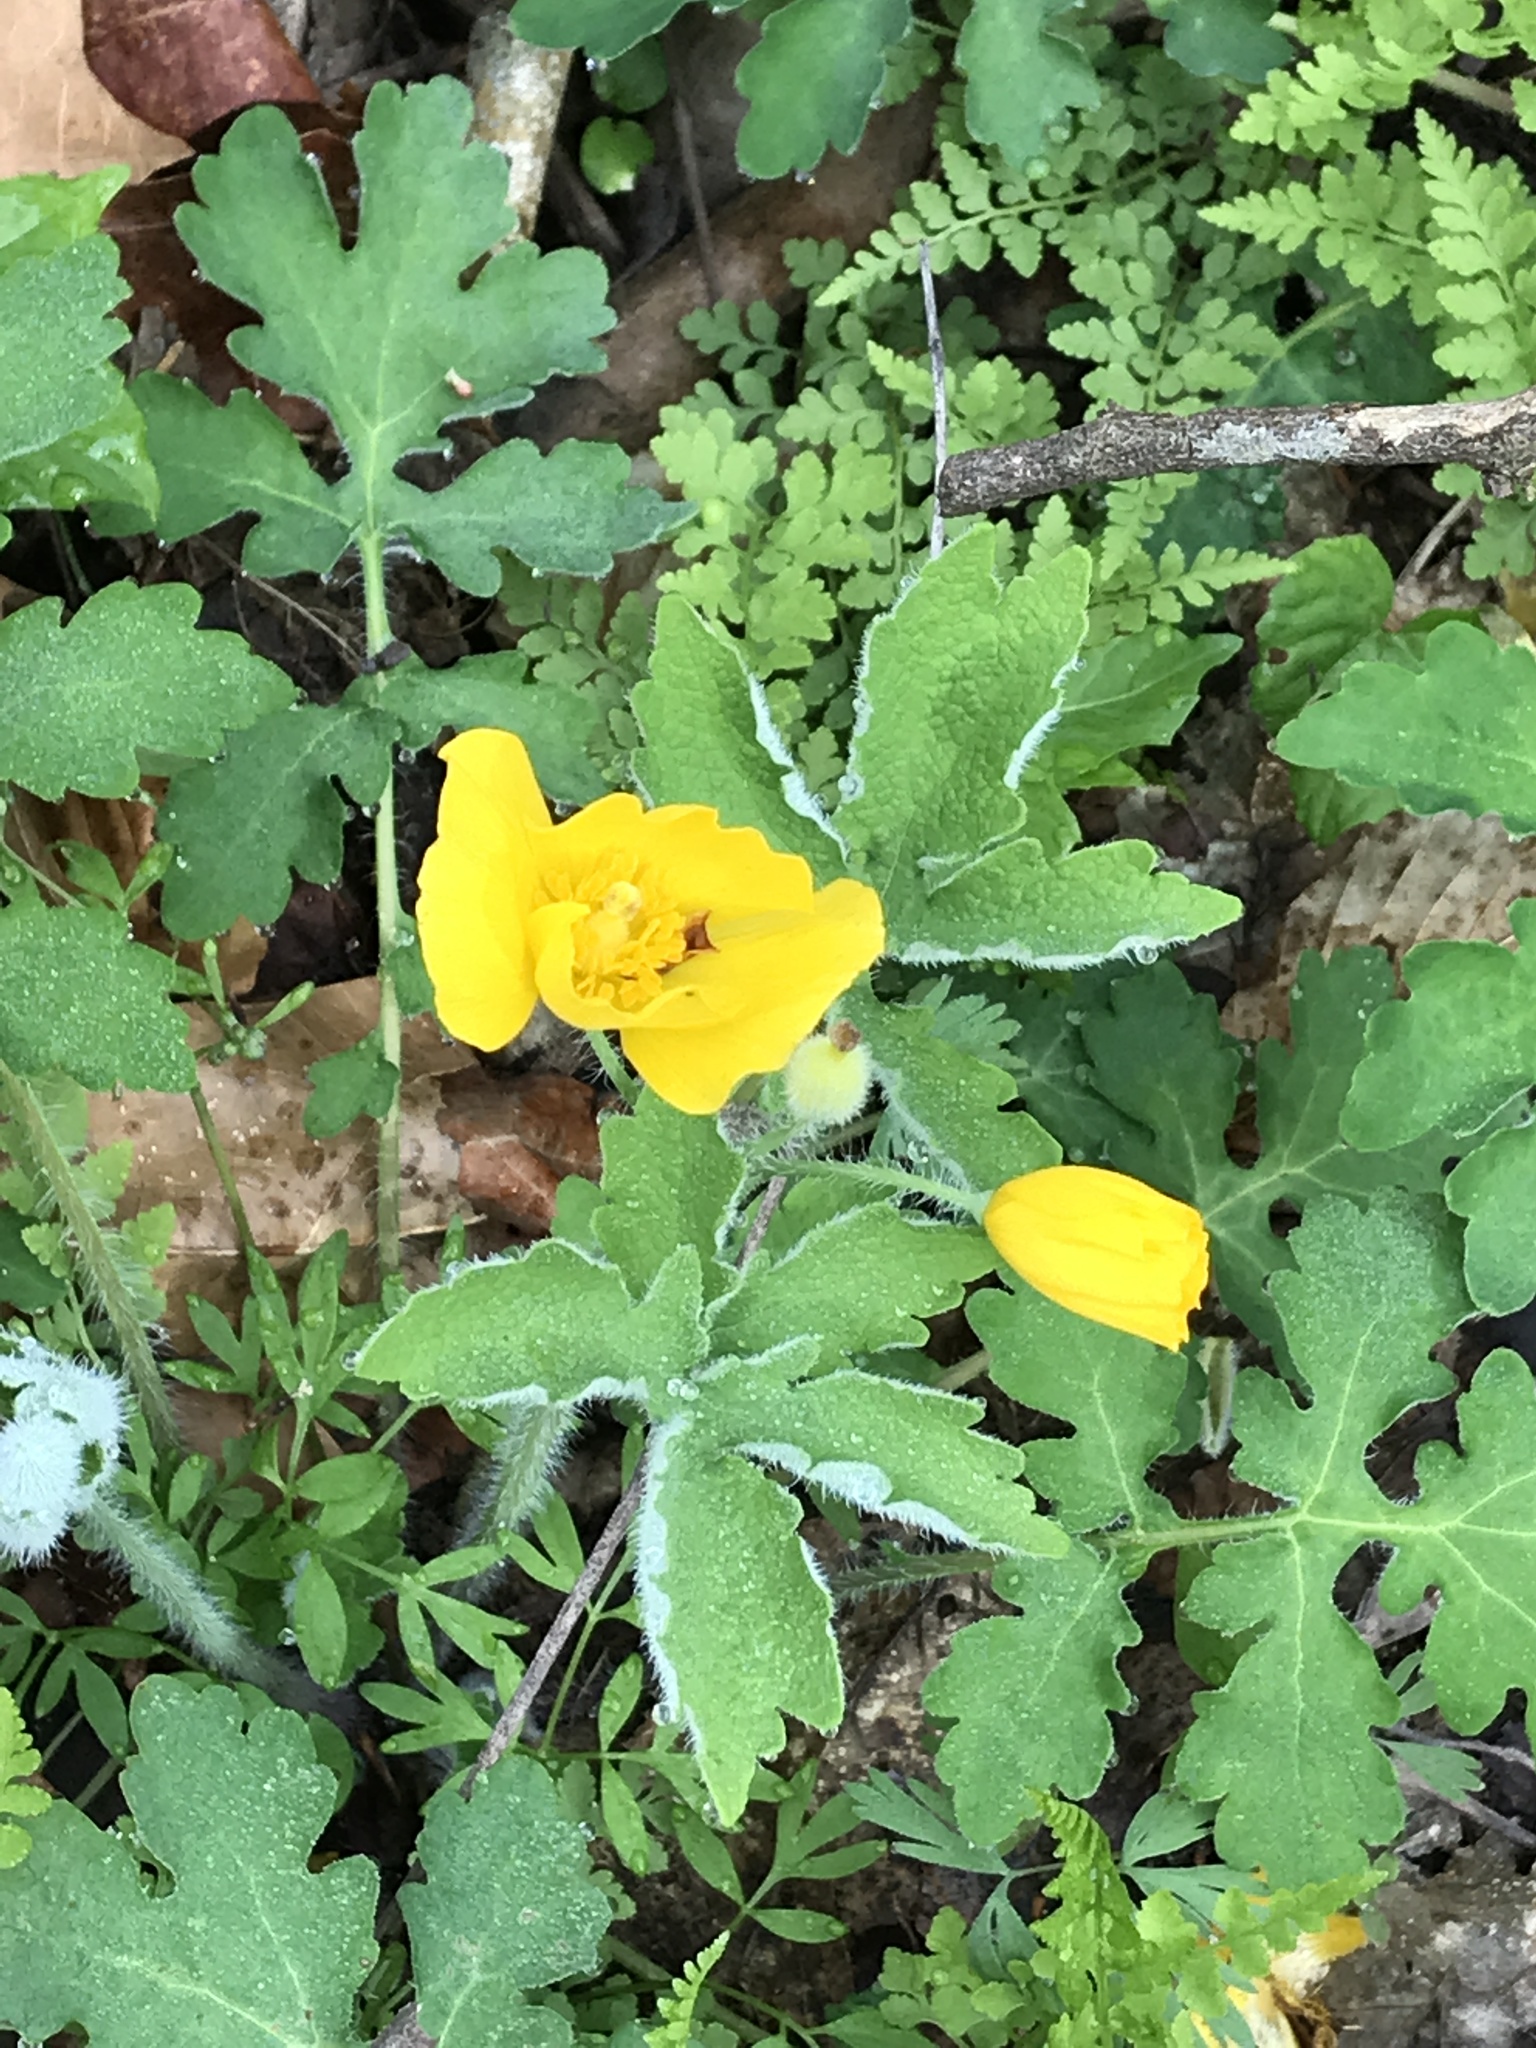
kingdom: Plantae
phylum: Tracheophyta
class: Magnoliopsida
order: Ranunculales
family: Papaveraceae
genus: Stylophorum
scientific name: Stylophorum diphyllum
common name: Celandine poppy
